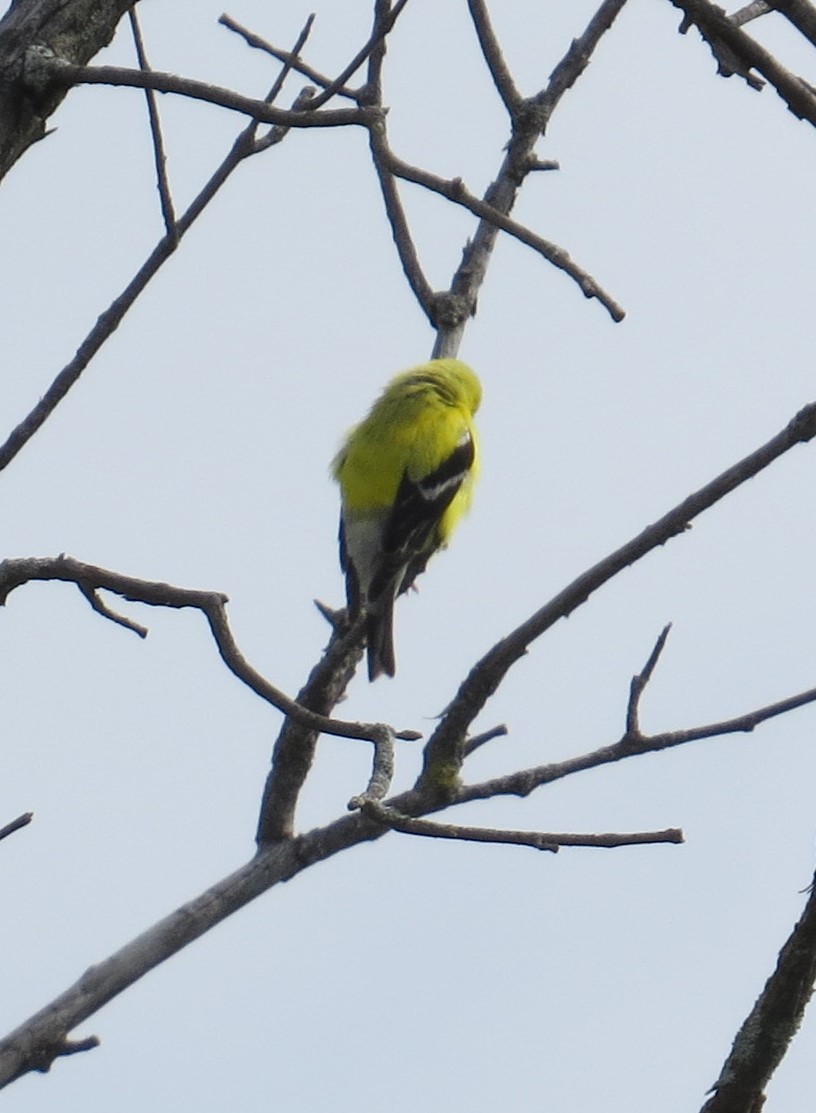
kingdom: Animalia
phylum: Chordata
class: Aves
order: Passeriformes
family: Fringillidae
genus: Spinus
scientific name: Spinus tristis
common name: American goldfinch
